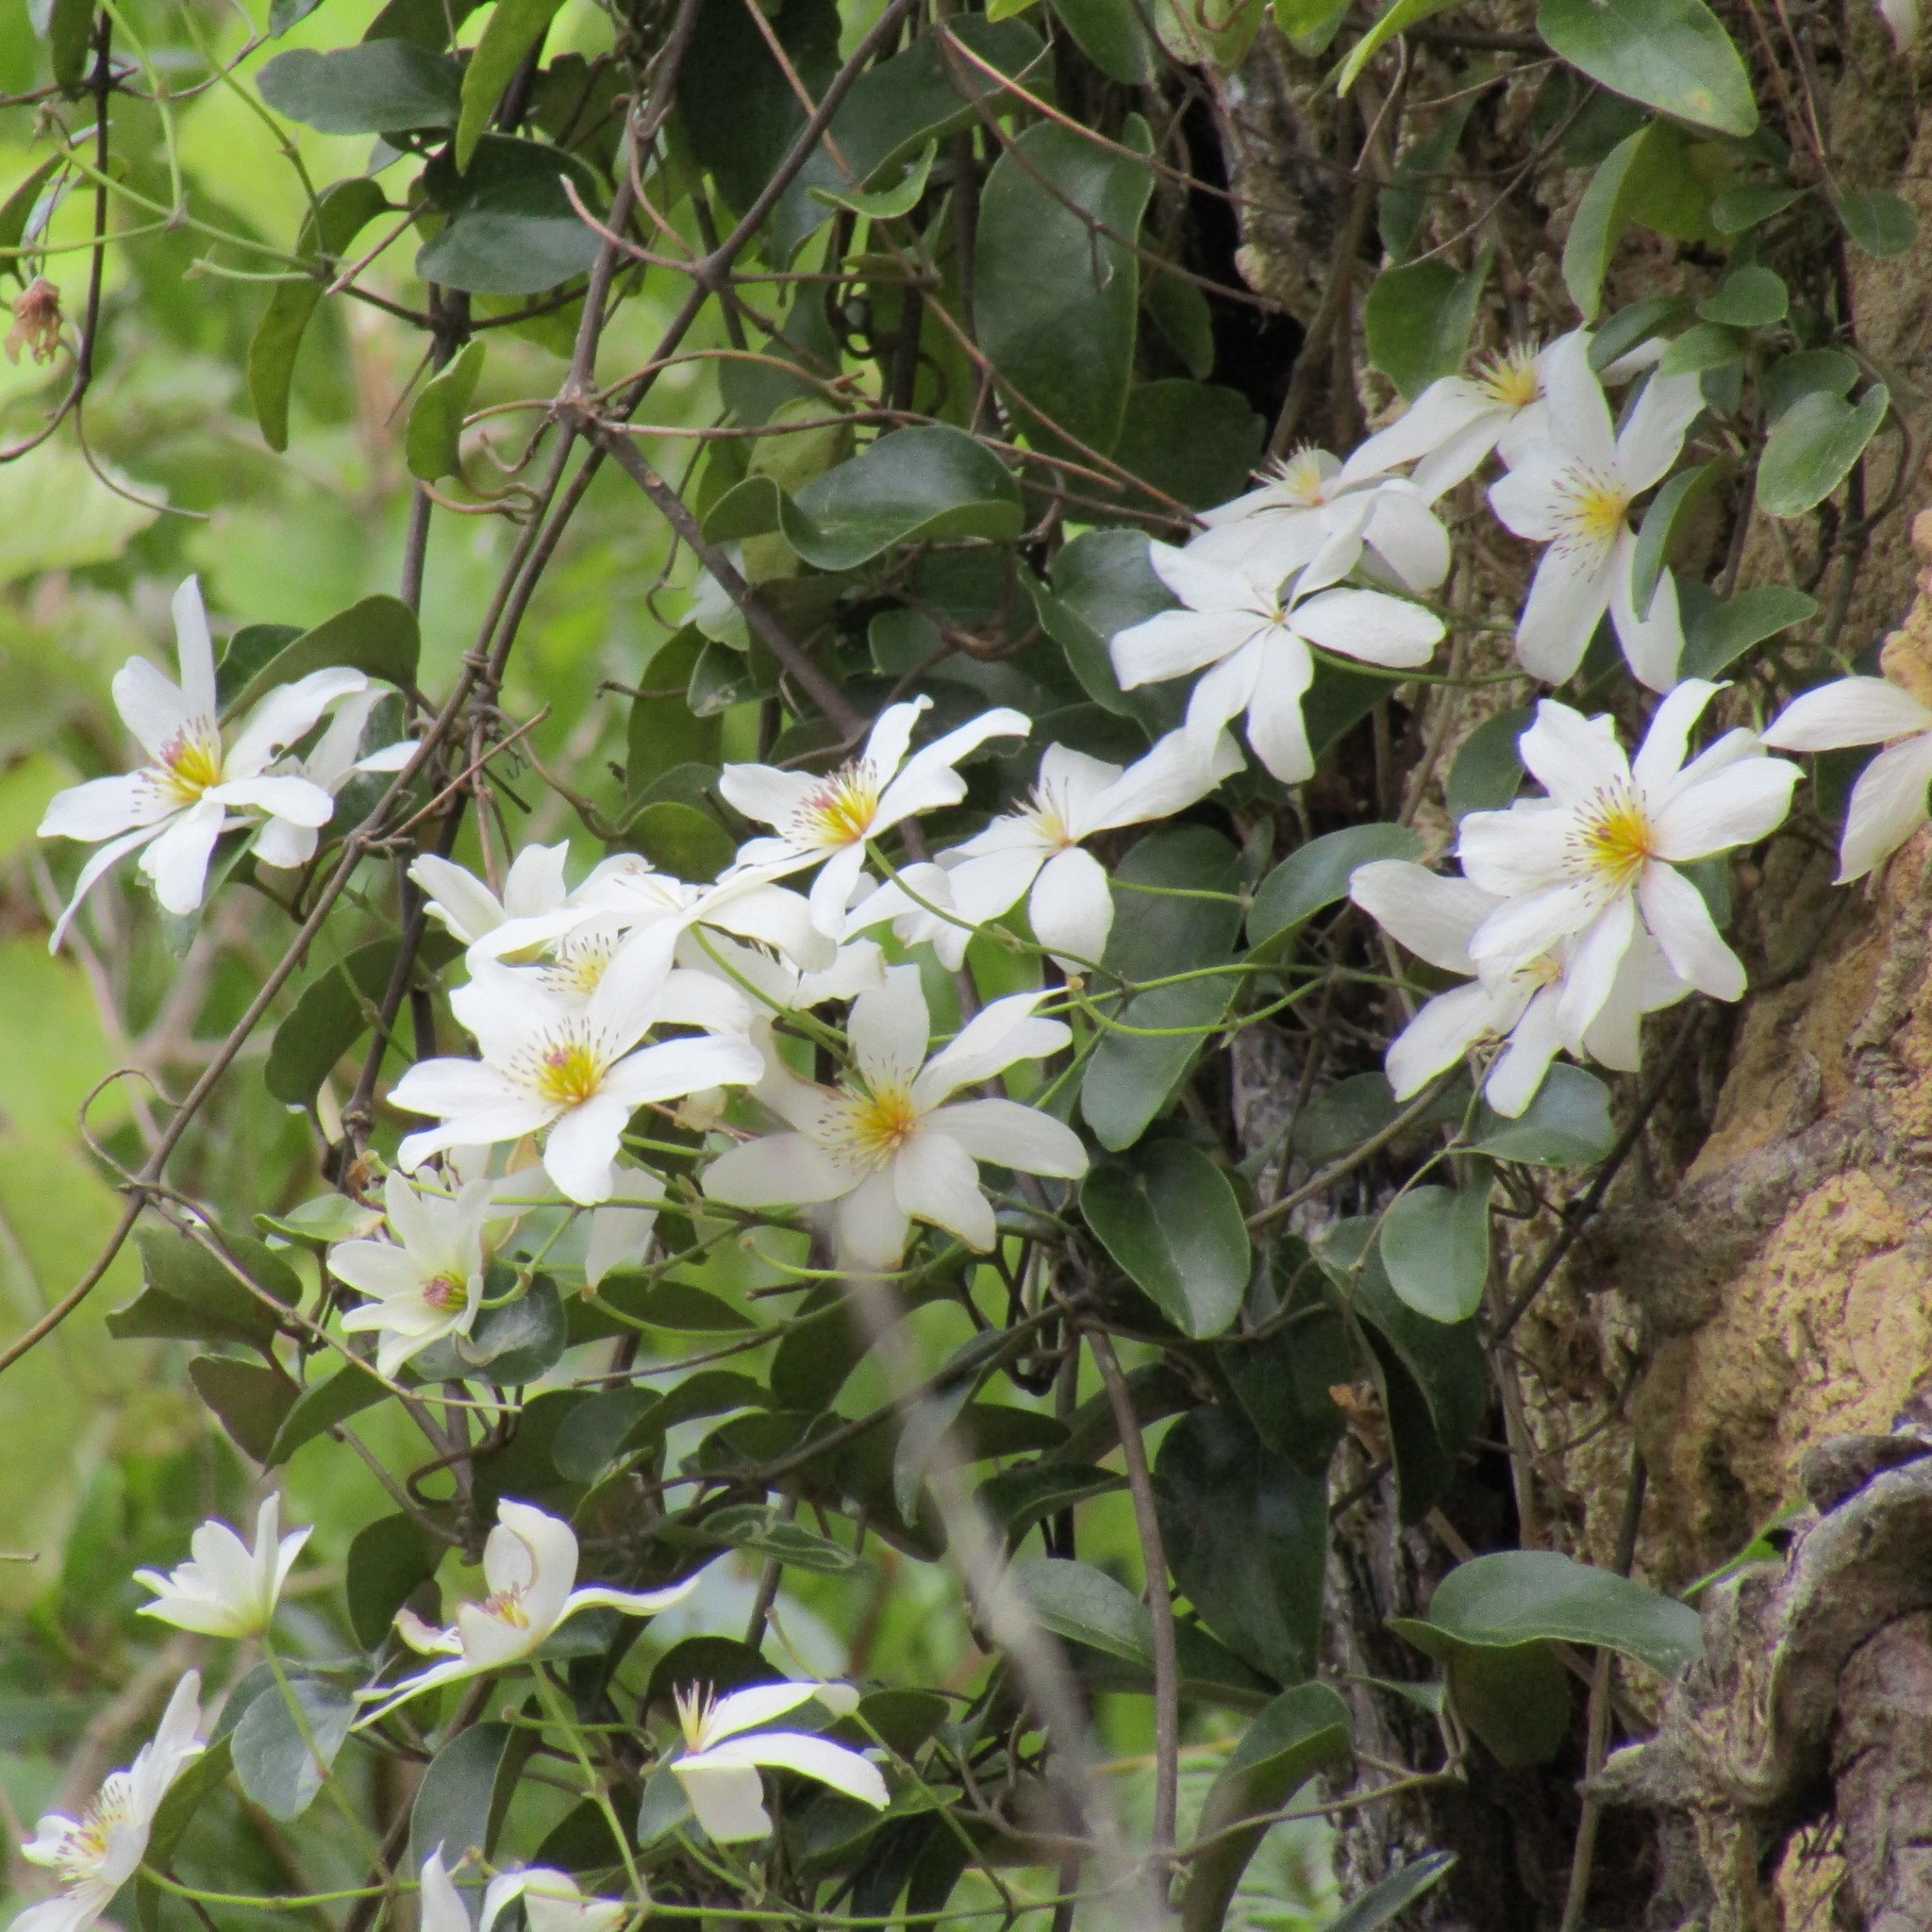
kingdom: Plantae
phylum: Tracheophyta
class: Magnoliopsida
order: Ranunculales
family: Ranunculaceae
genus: Clematis
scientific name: Clematis paniculata
